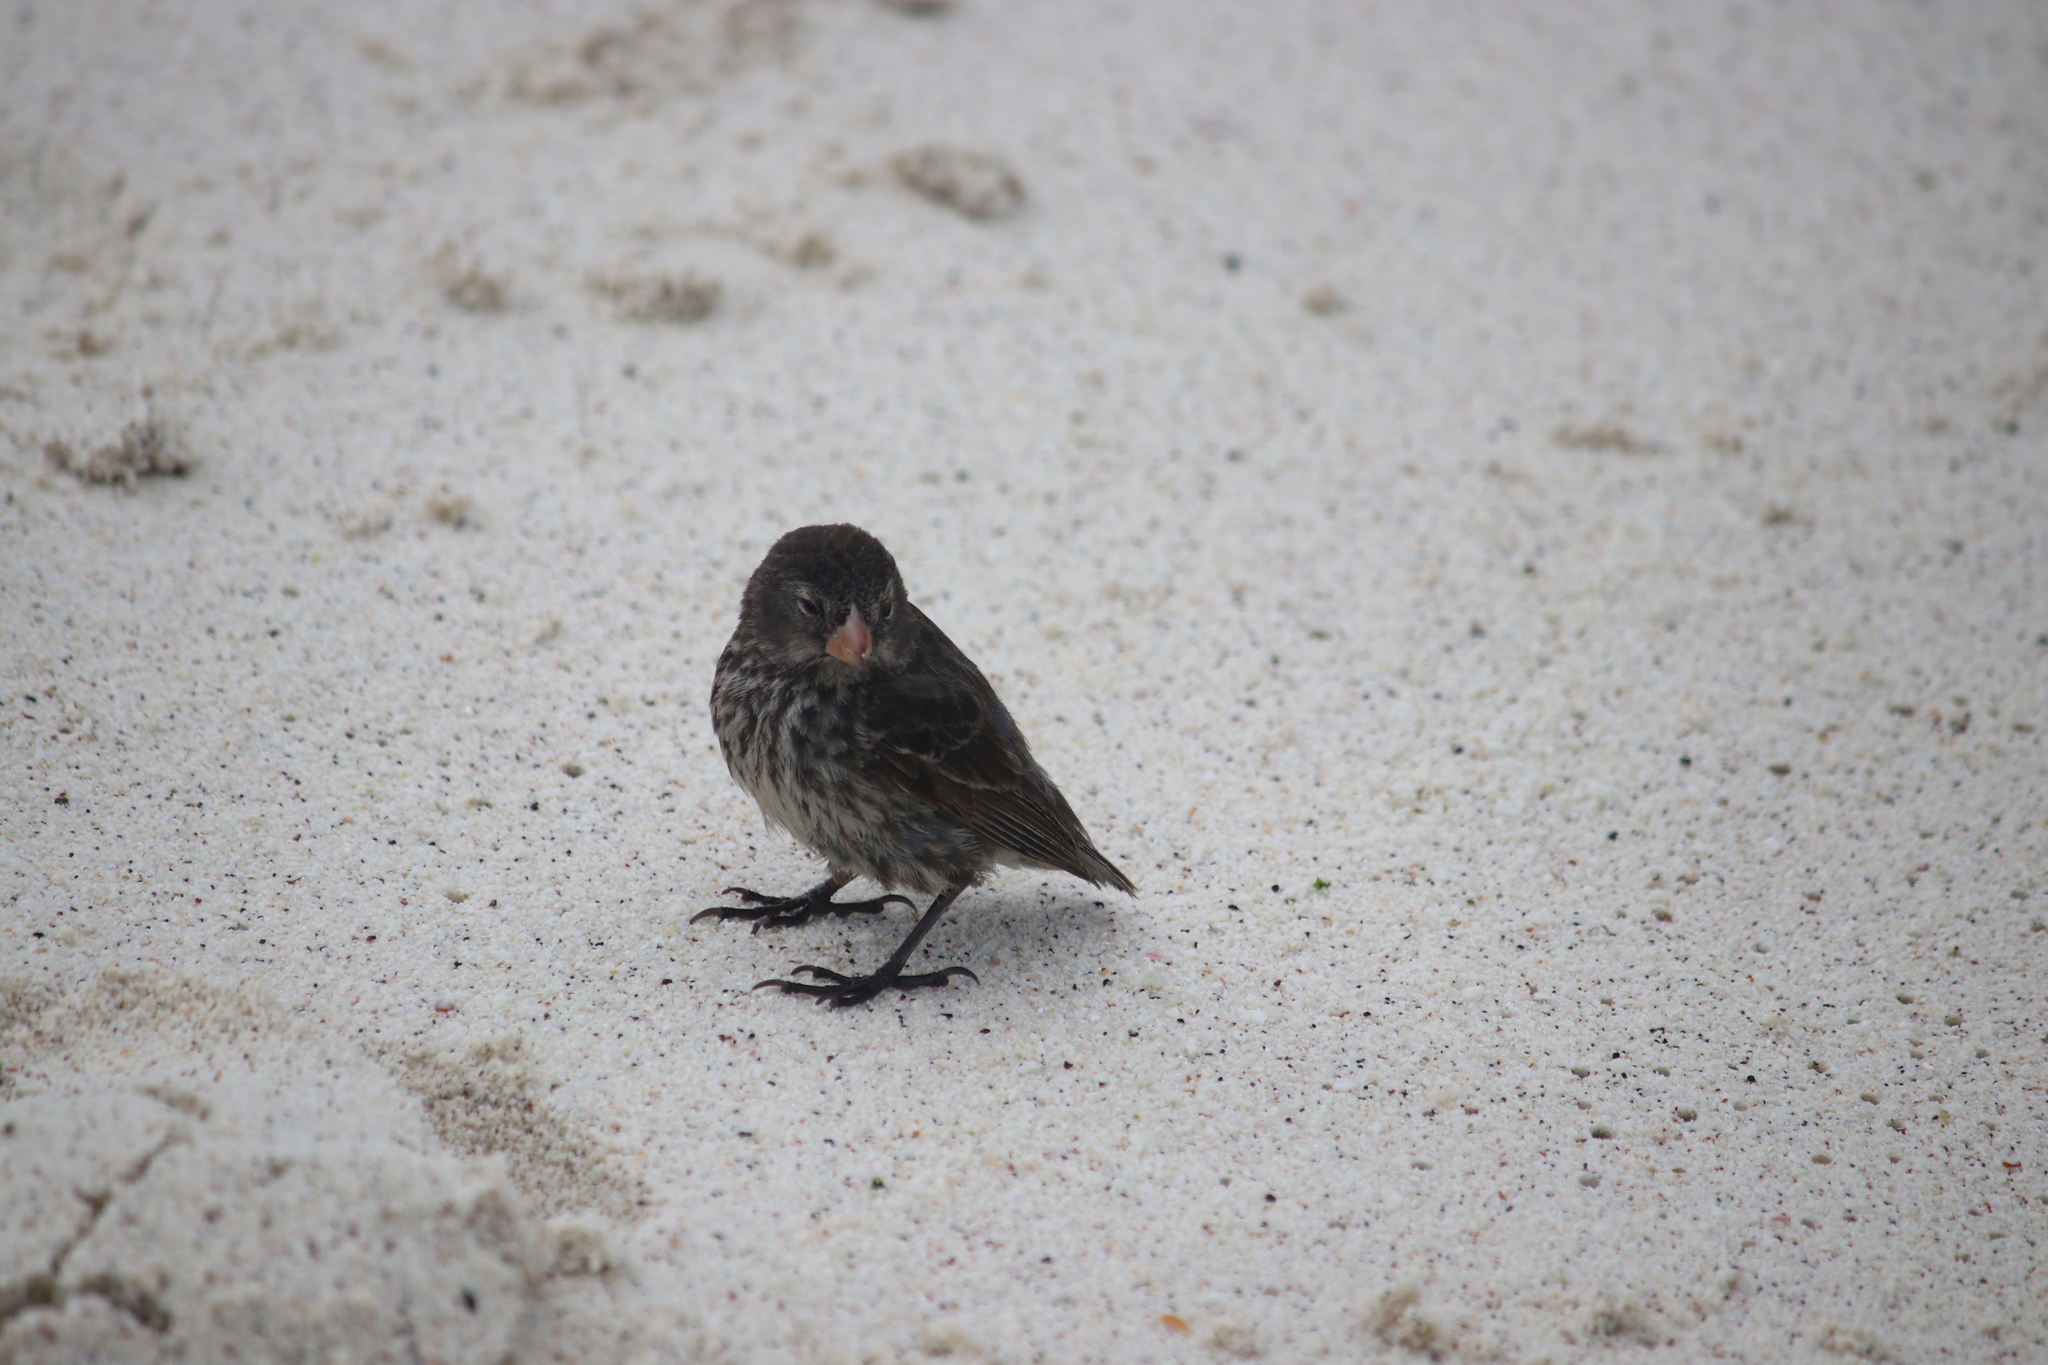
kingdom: Animalia
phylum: Chordata
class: Aves
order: Passeriformes
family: Thraupidae
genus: Geospiza
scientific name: Geospiza fortis
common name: Medium ground finch
